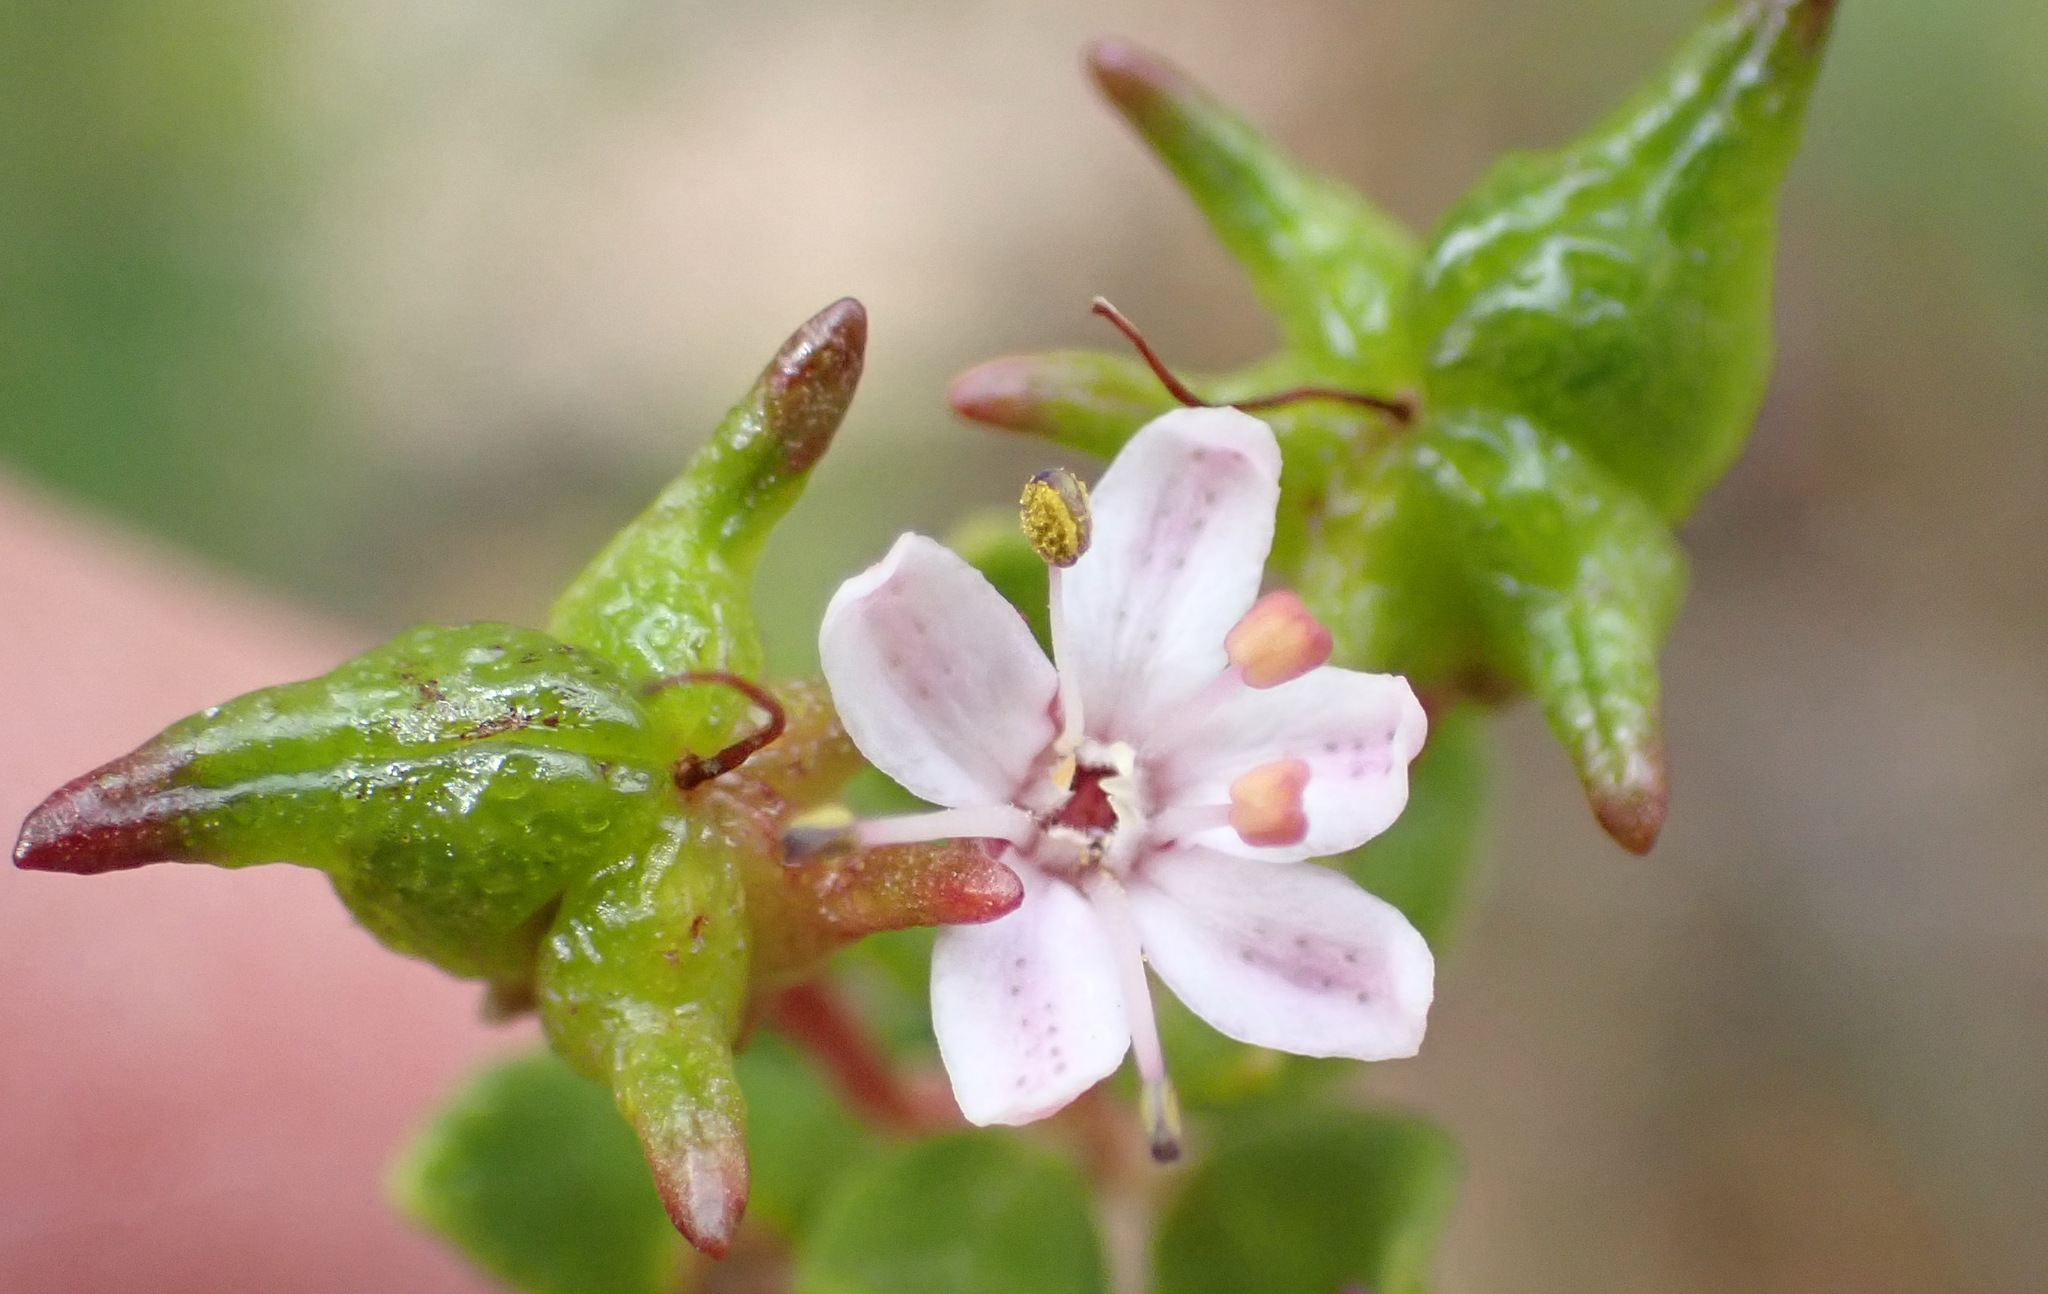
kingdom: Plantae
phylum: Tracheophyta
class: Magnoliopsida
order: Sapindales
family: Rutaceae
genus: Agathosma
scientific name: Agathosma ovata
